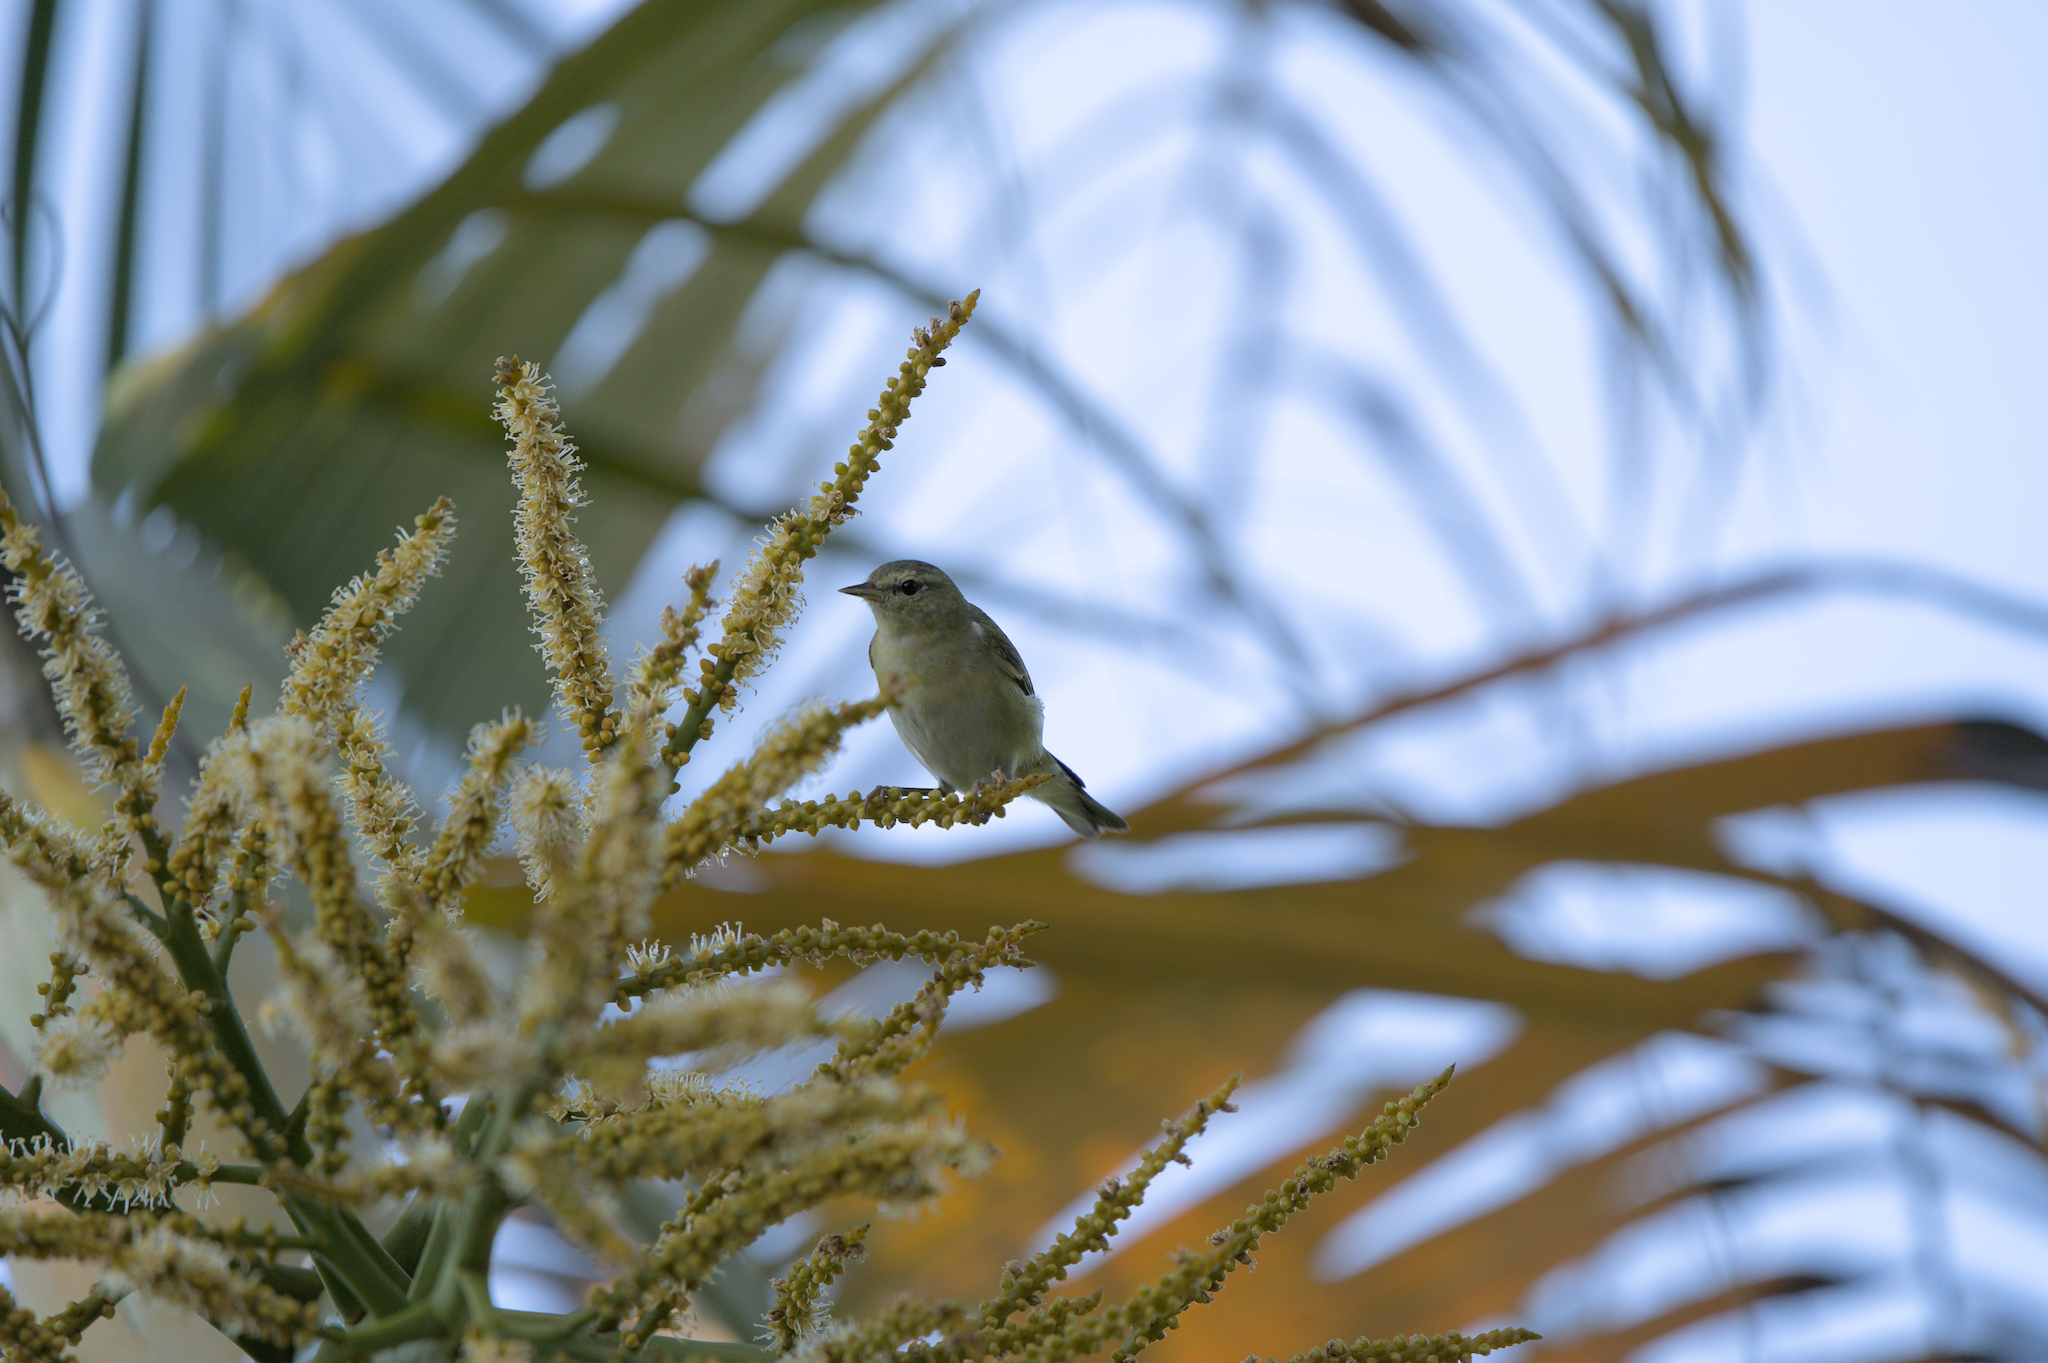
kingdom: Animalia
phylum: Chordata
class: Aves
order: Passeriformes
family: Parulidae
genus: Leiothlypis
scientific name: Leiothlypis peregrina
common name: Tennessee warbler
